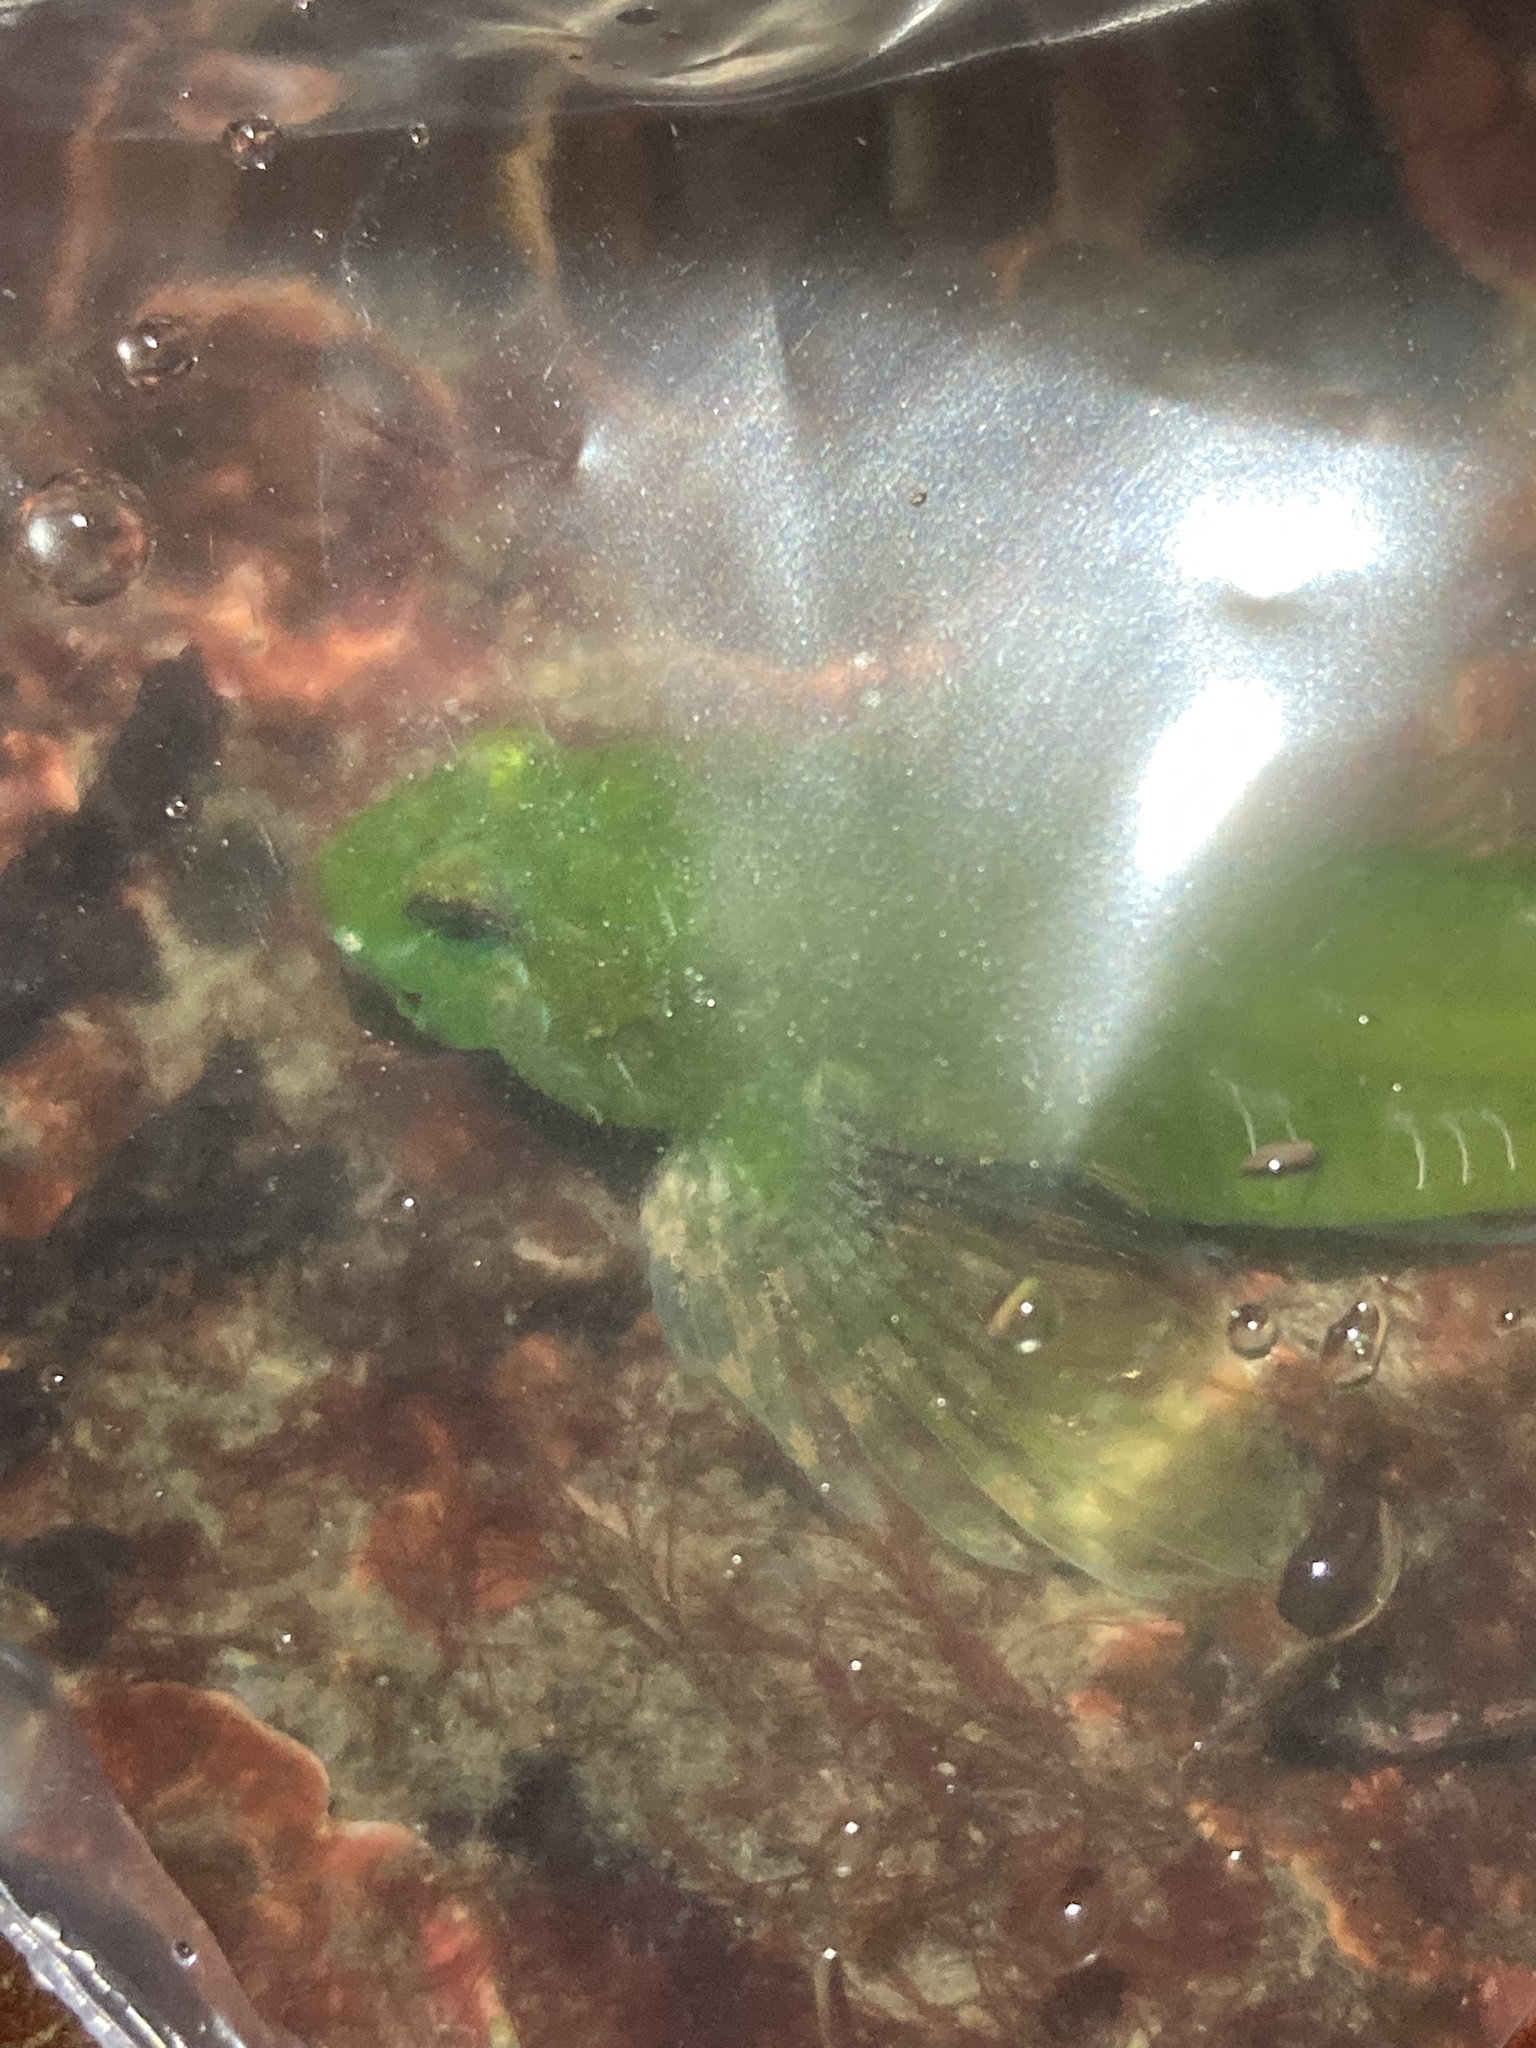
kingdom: Animalia
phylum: Chordata
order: Scorpaeniformes
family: Cottidae
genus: Oligocottus
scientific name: Oligocottus snyderi
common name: Fluffy sculpin
